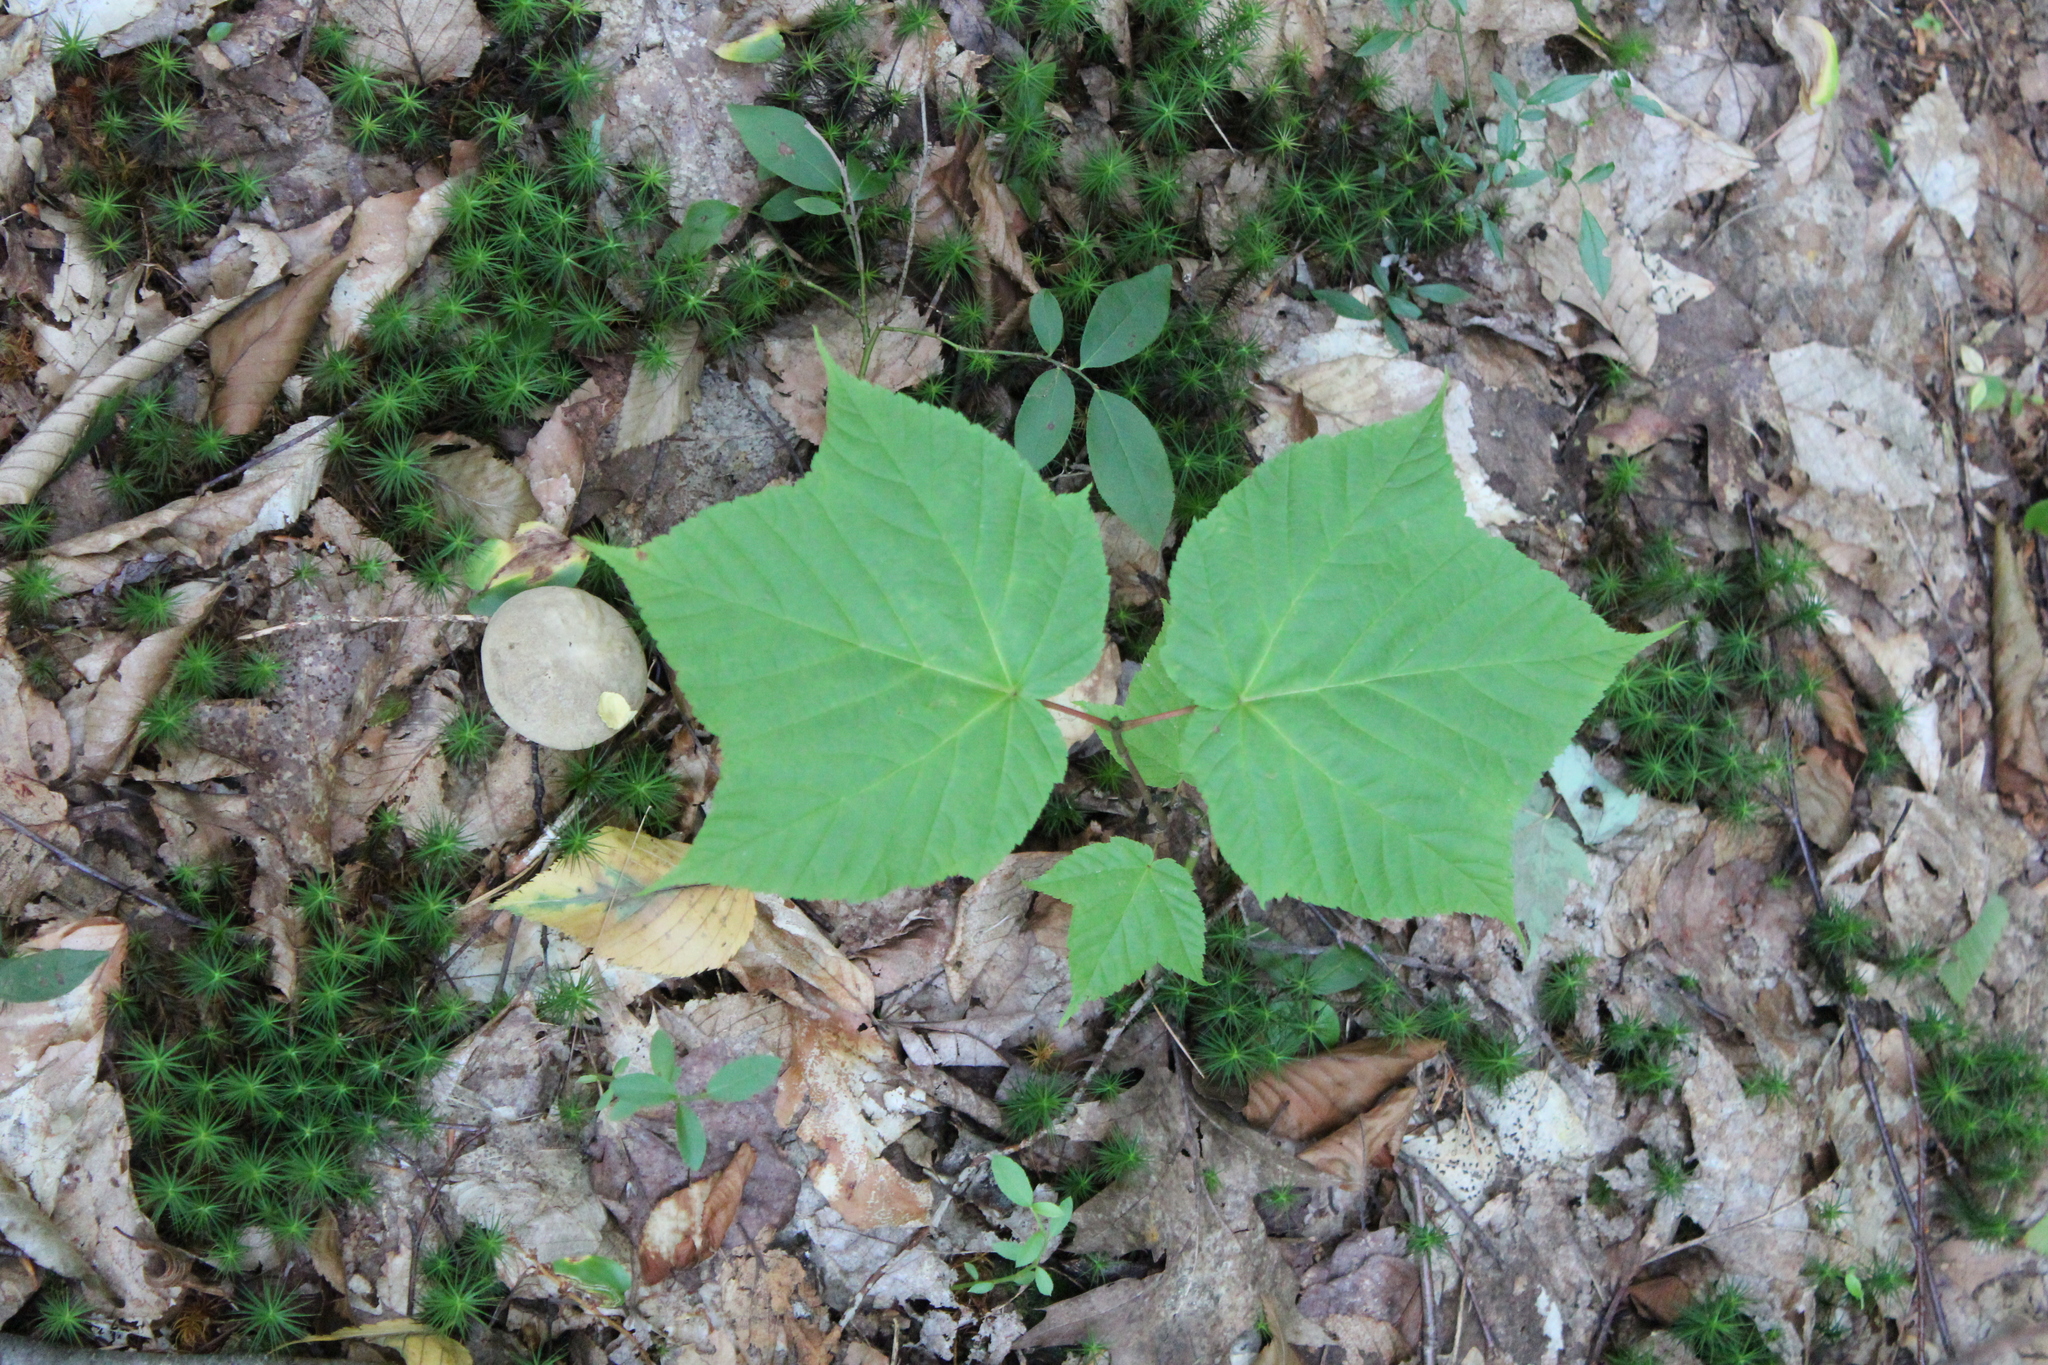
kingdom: Plantae
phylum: Tracheophyta
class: Magnoliopsida
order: Sapindales
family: Sapindaceae
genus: Acer
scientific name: Acer pensylvanicum
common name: Moosewood
